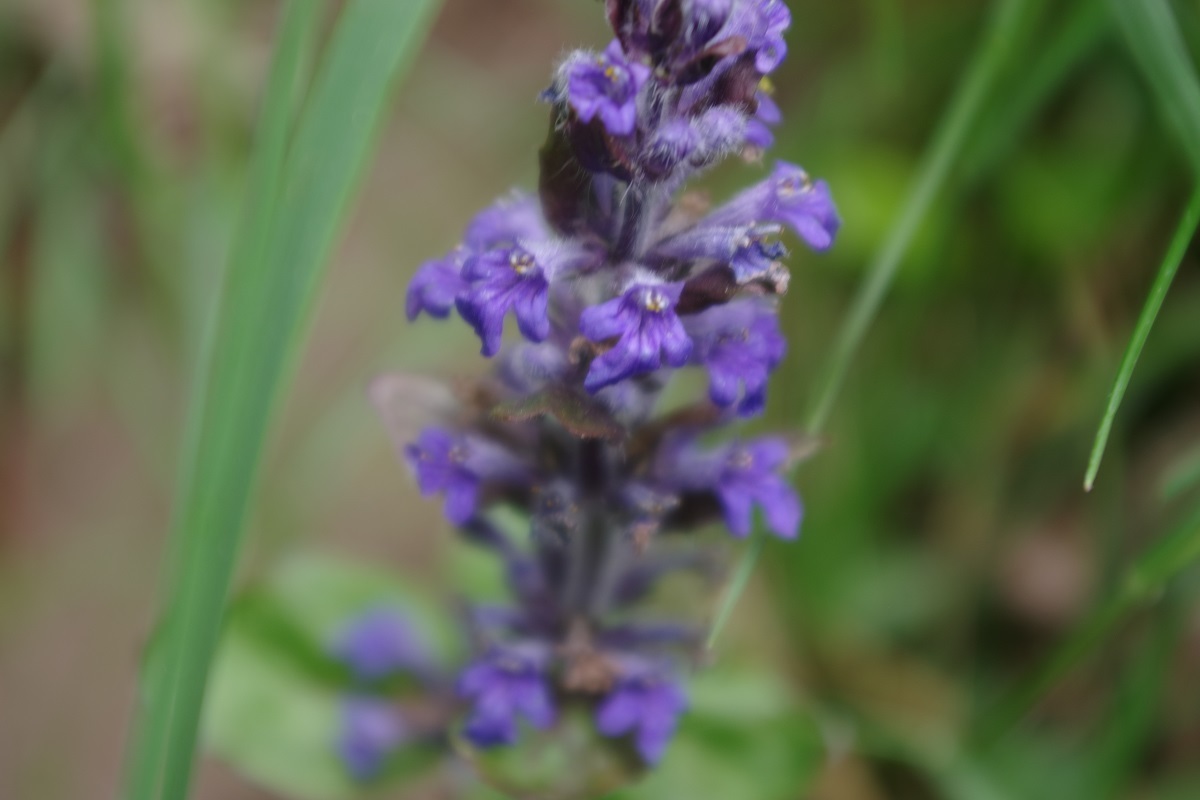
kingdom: Plantae
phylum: Tracheophyta
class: Magnoliopsida
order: Lamiales
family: Lamiaceae
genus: Ajuga
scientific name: Ajuga reptans
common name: Bugle
